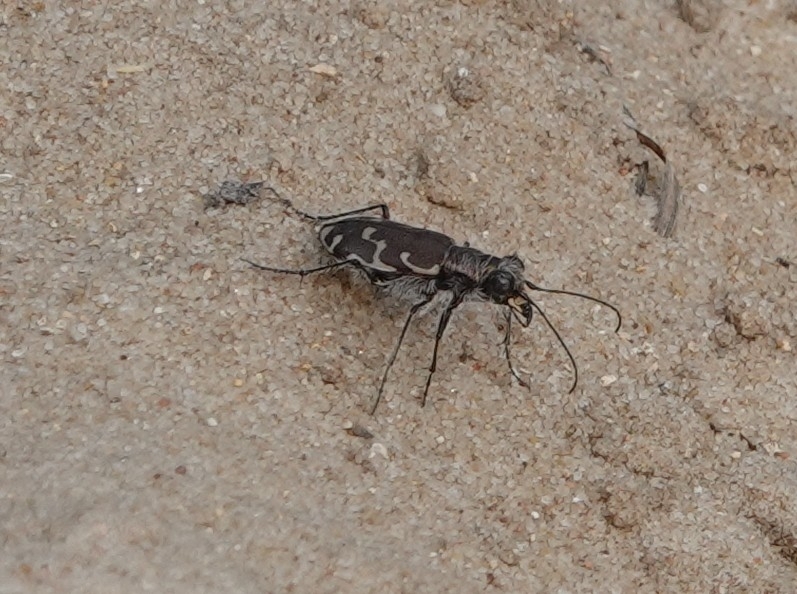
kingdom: Animalia
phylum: Arthropoda
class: Insecta
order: Coleoptera
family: Carabidae
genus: Cicindela
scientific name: Cicindela repanda
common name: Bronzed tiger beetle
